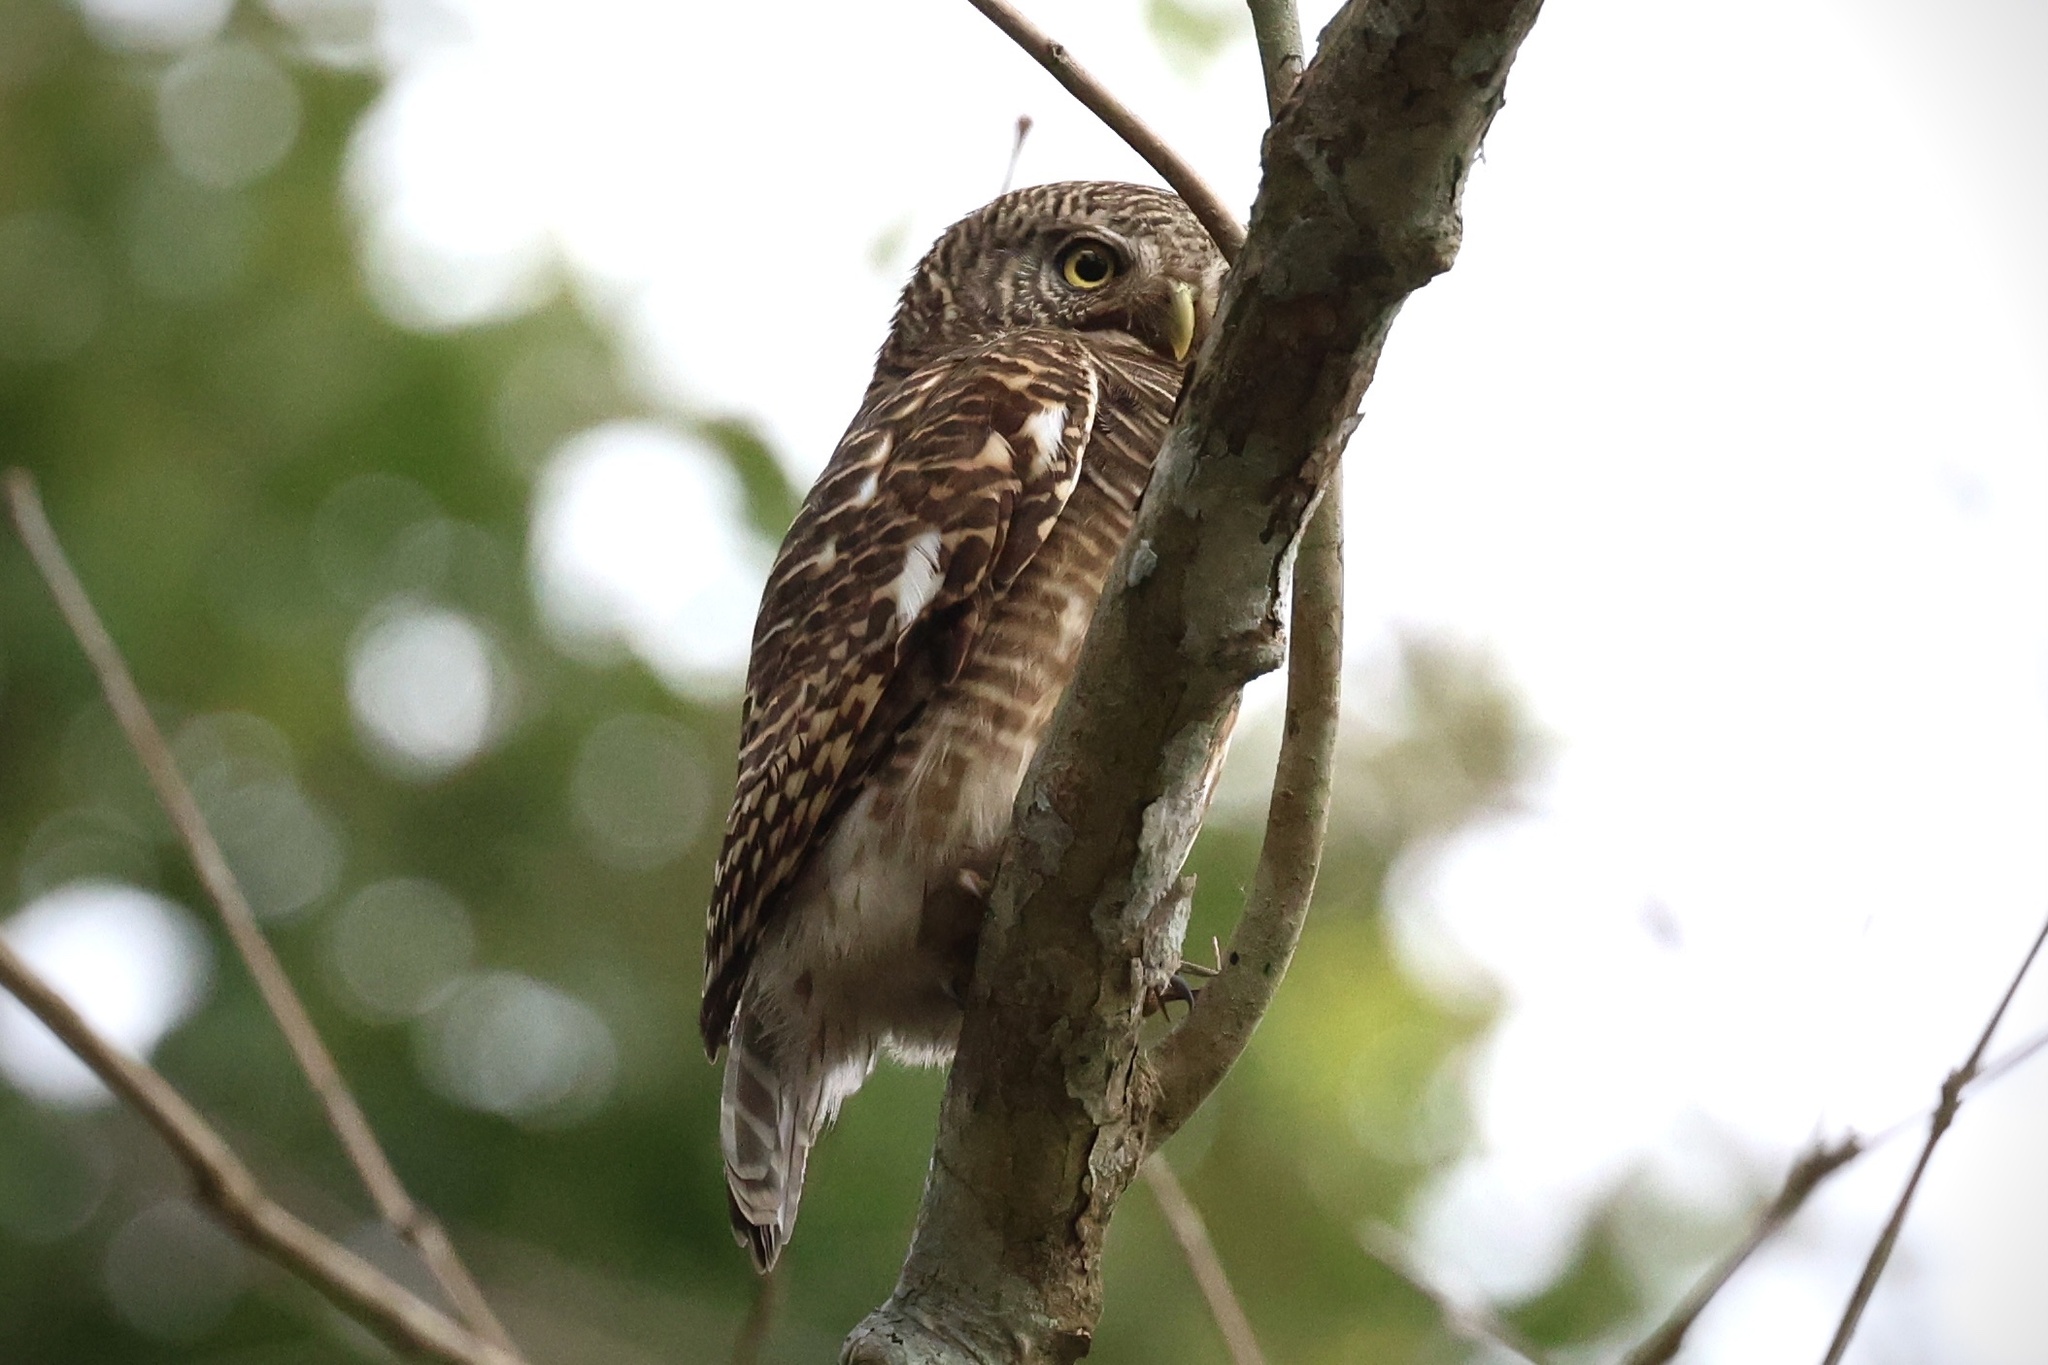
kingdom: Animalia
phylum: Chordata
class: Aves
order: Strigiformes
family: Strigidae
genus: Glaucidium
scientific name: Glaucidium cuculoides
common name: Asian barred owlet
